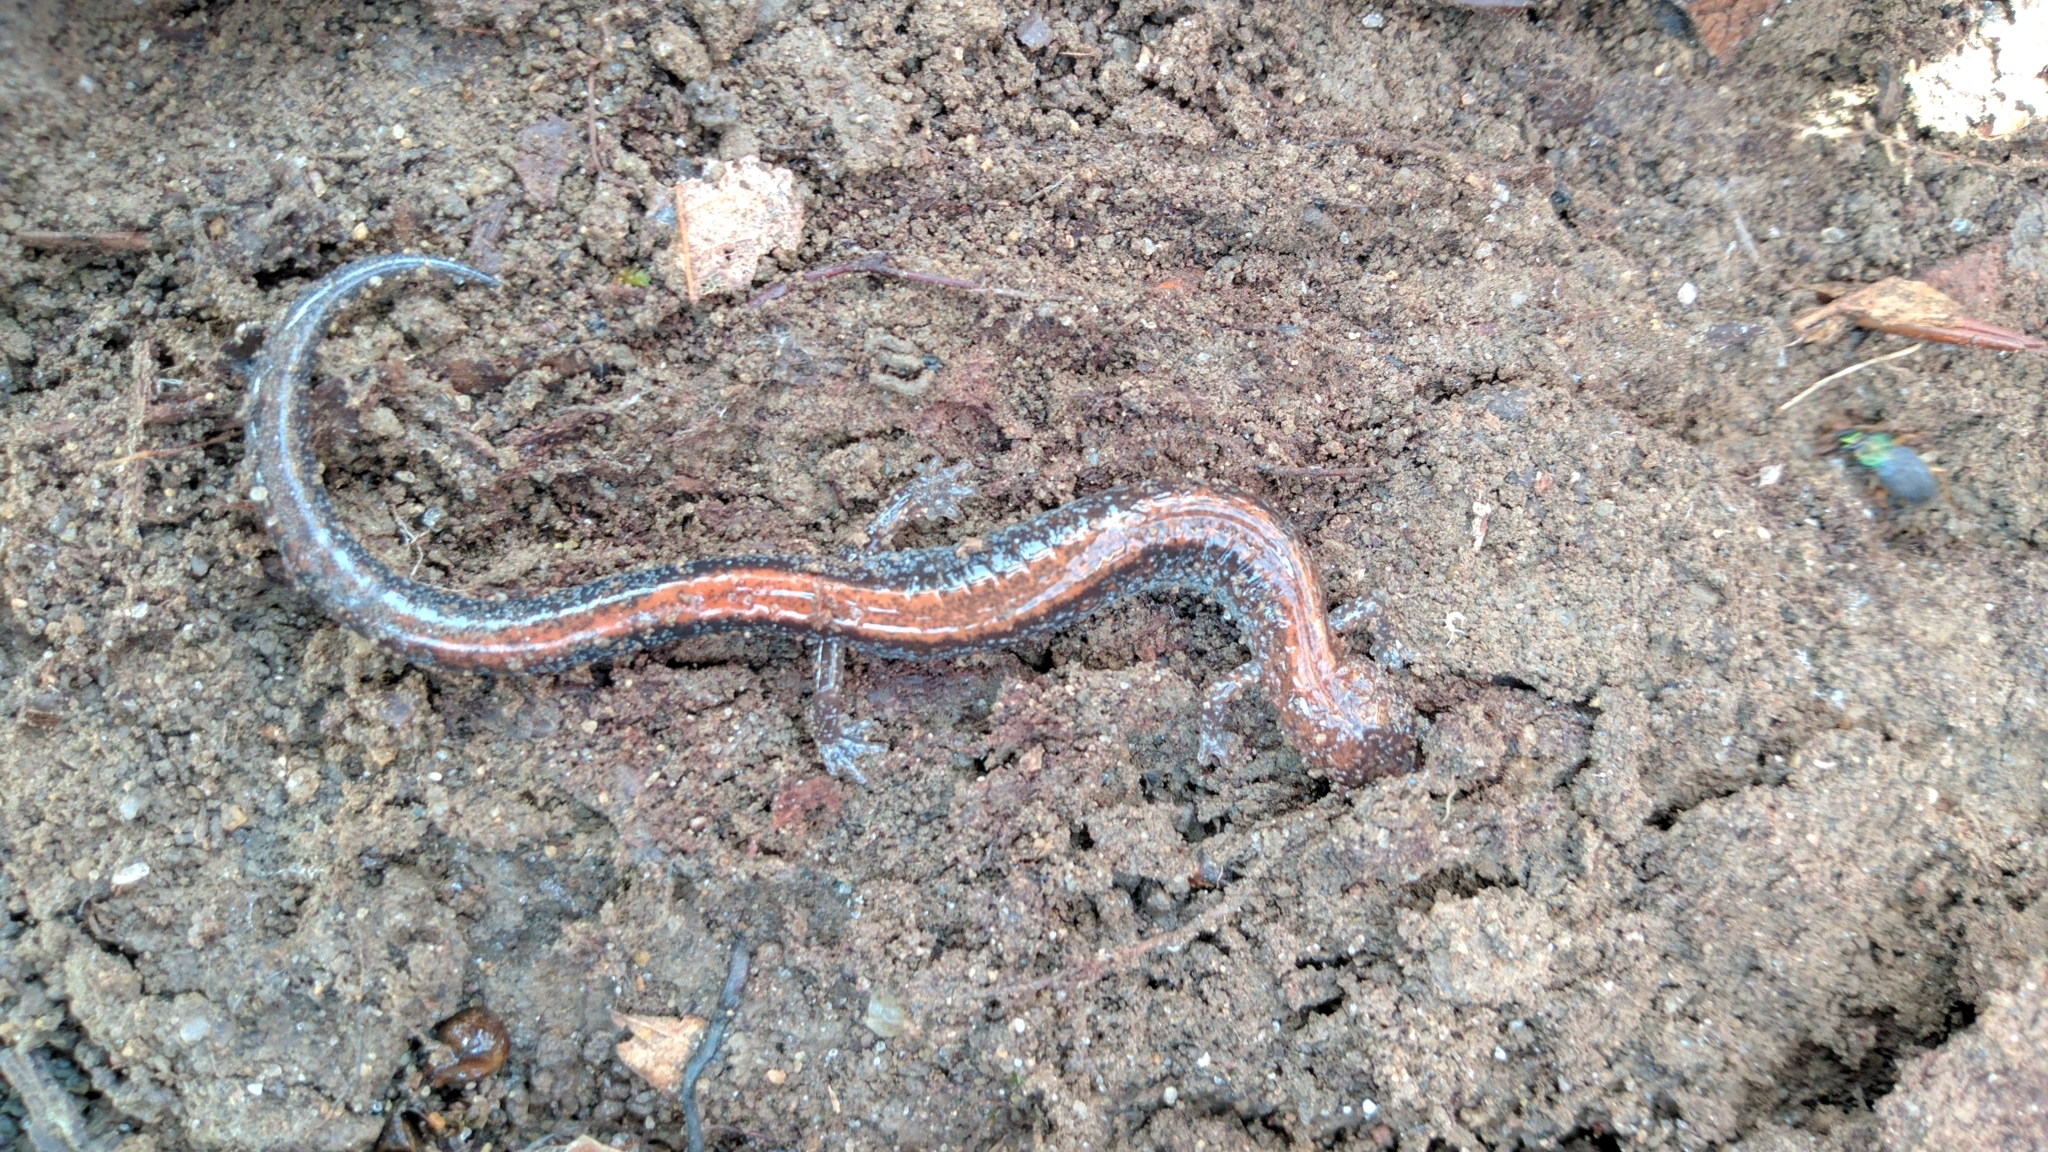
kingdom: Animalia
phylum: Chordata
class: Amphibia
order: Caudata
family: Plethodontidae
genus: Plethodon
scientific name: Plethodon cinereus
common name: Redback salamander
